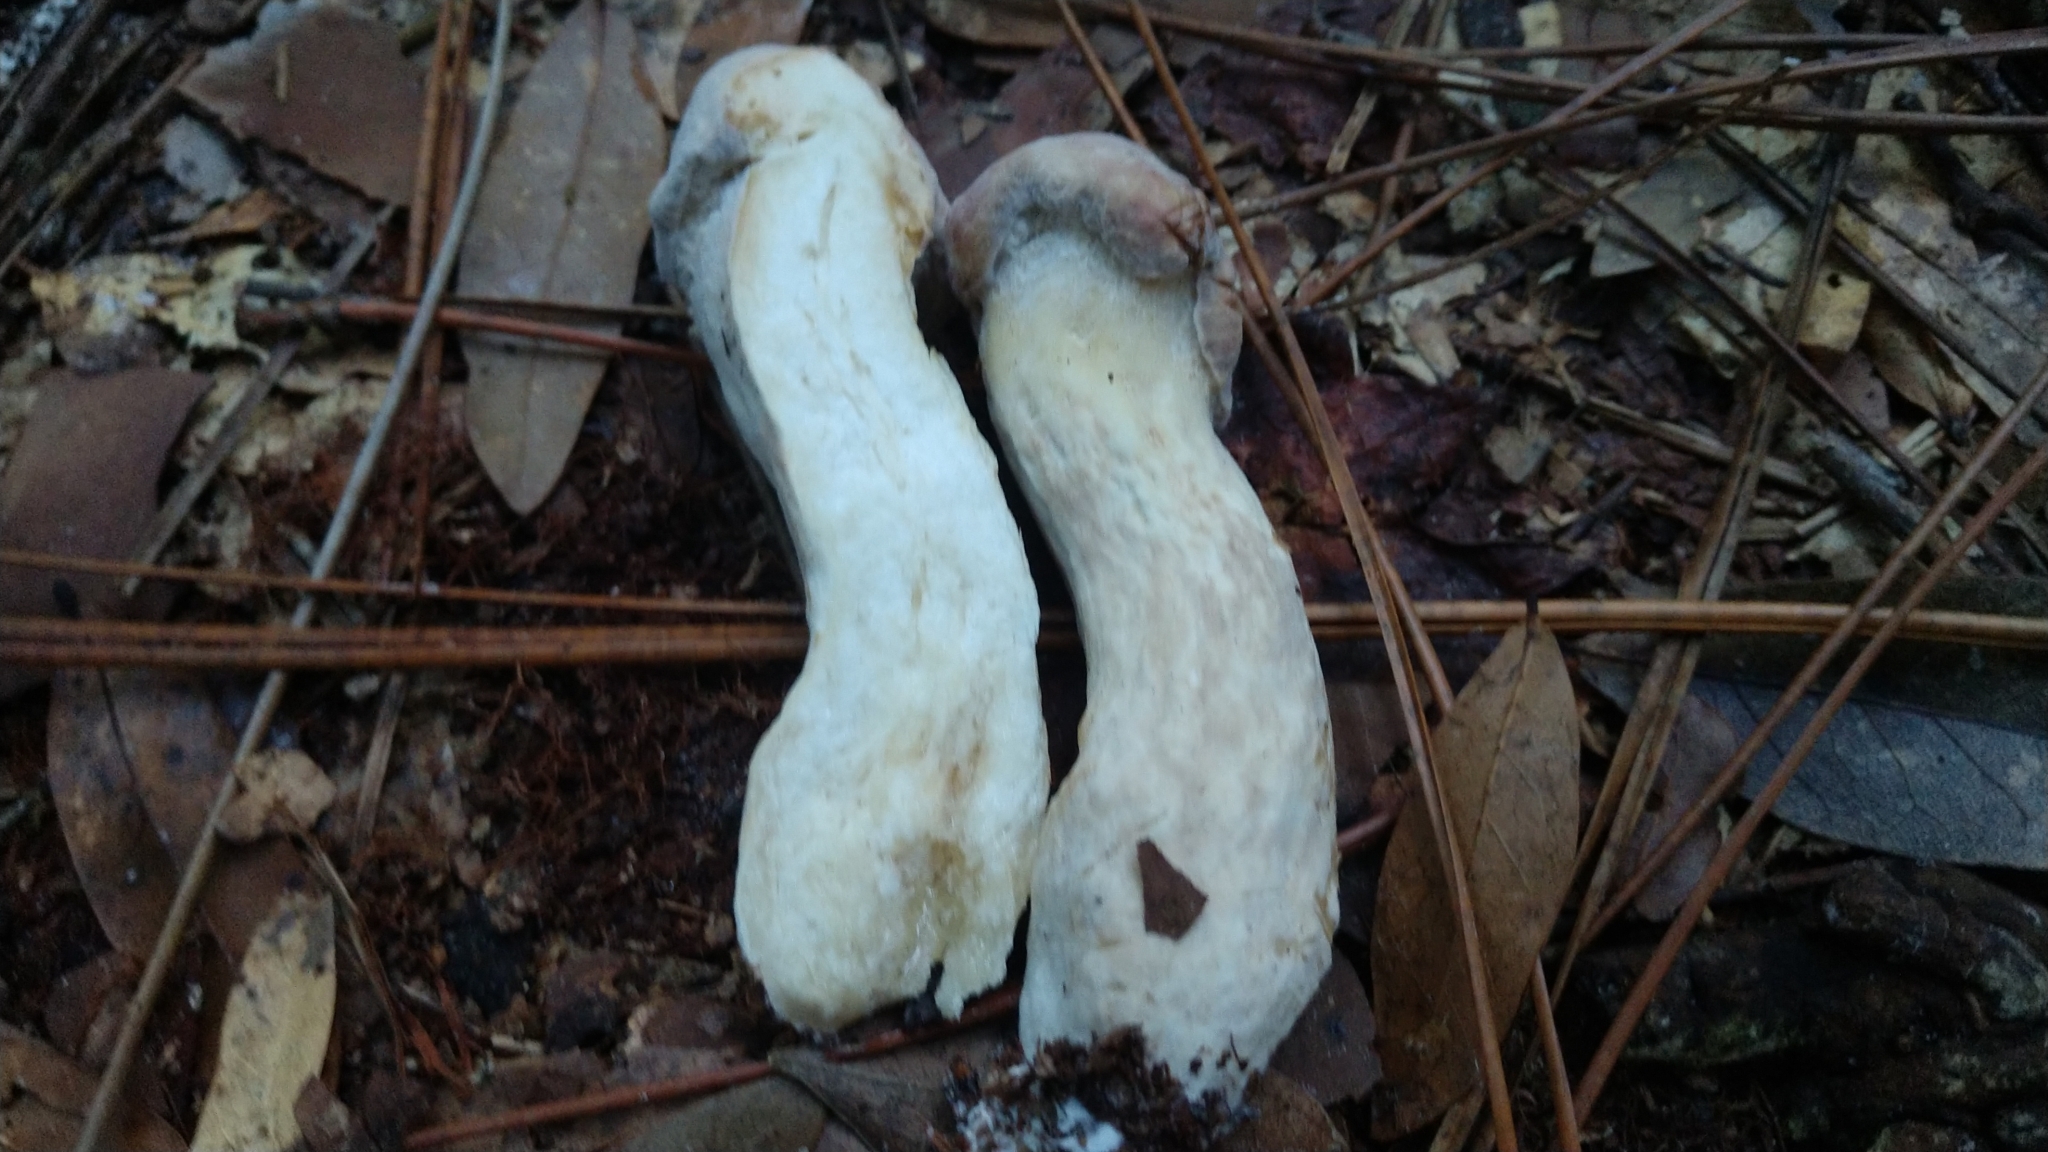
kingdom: Fungi
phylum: Ascomycota
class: Sordariomycetes
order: Hypocreales
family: Hypocreaceae
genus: Hypomyces
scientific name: Hypomyces chrysospermus
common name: Bolete mould
